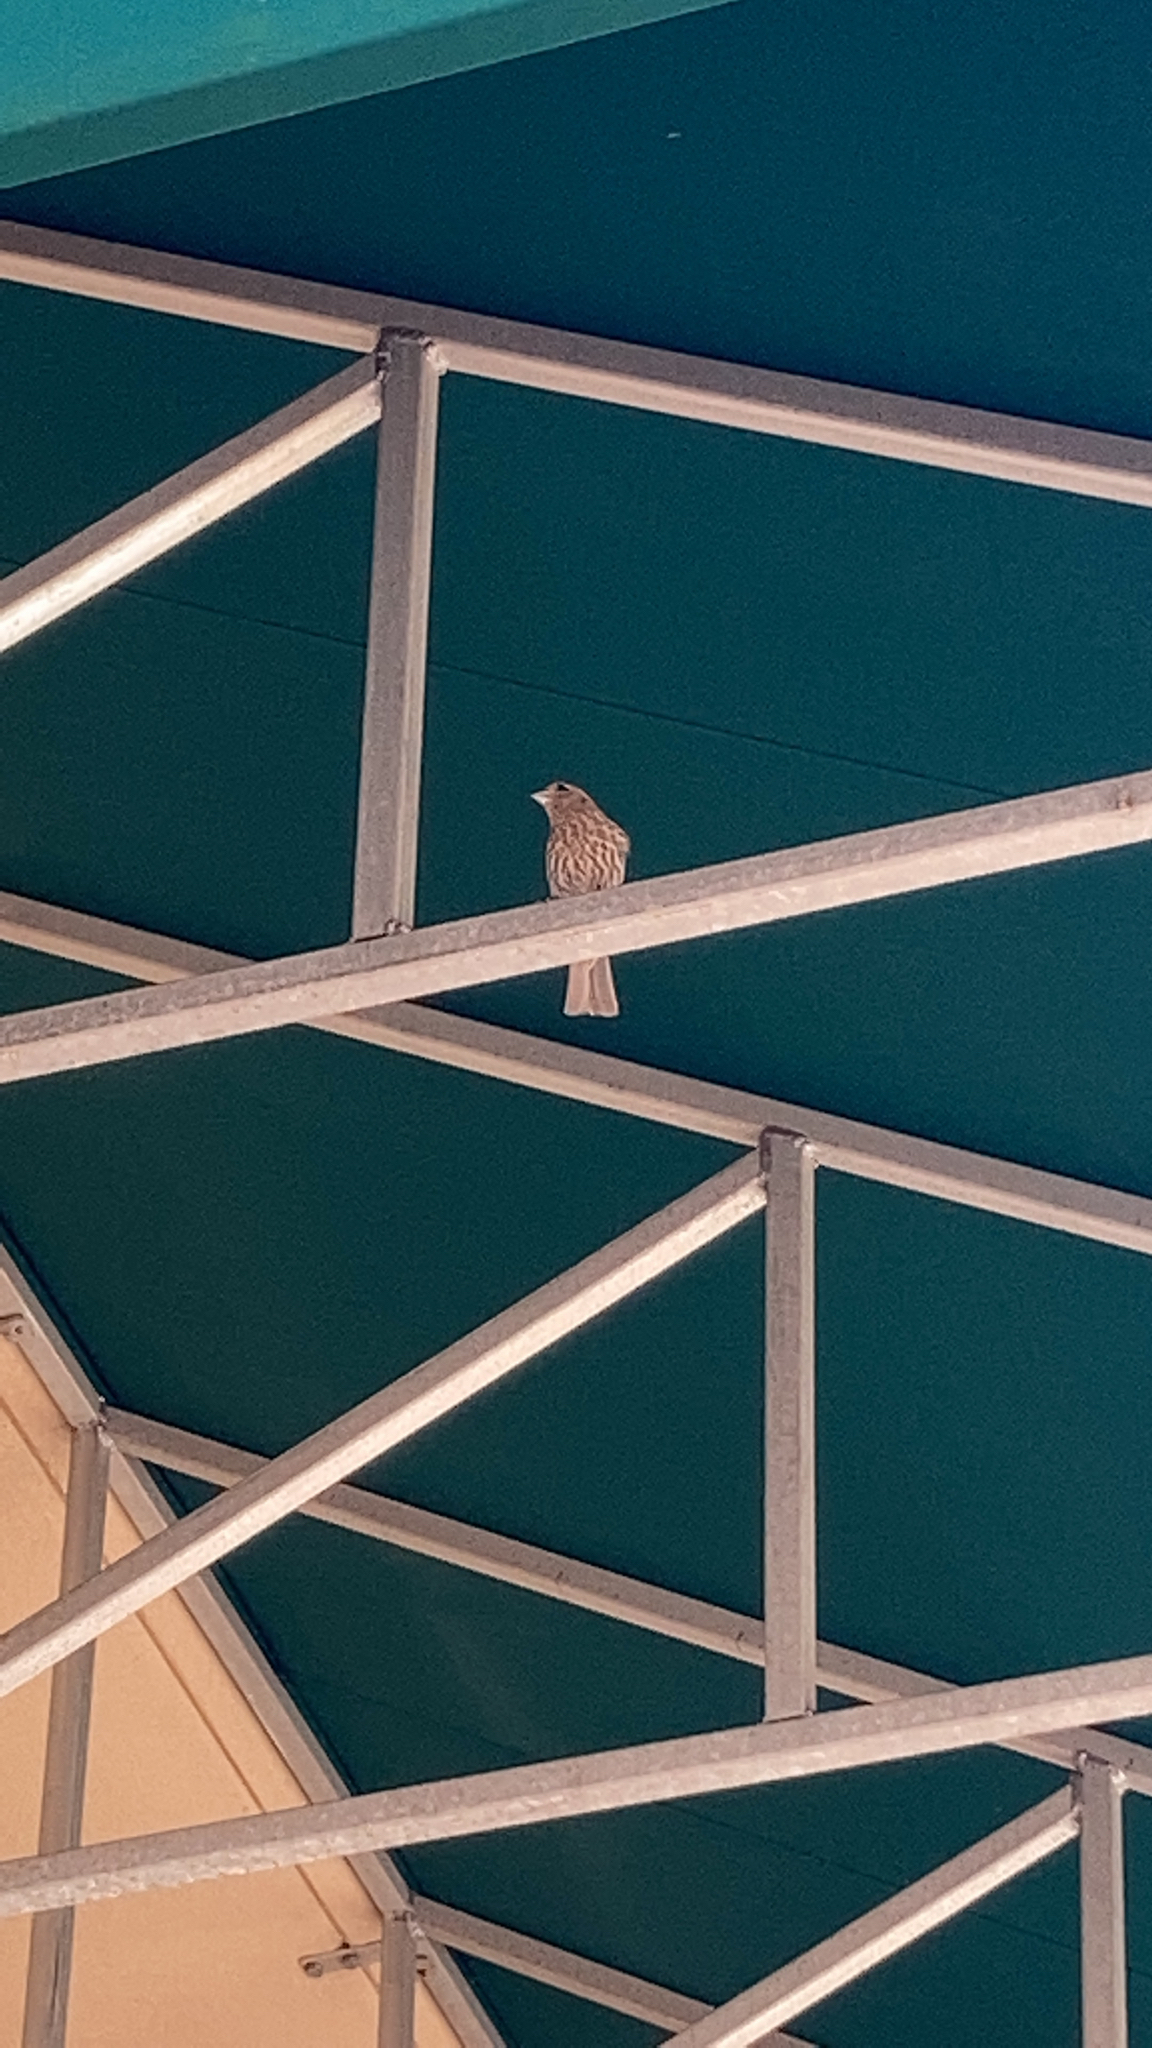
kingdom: Animalia
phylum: Chordata
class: Aves
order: Passeriformes
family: Fringillidae
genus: Haemorhous
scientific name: Haemorhous mexicanus
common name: House finch
